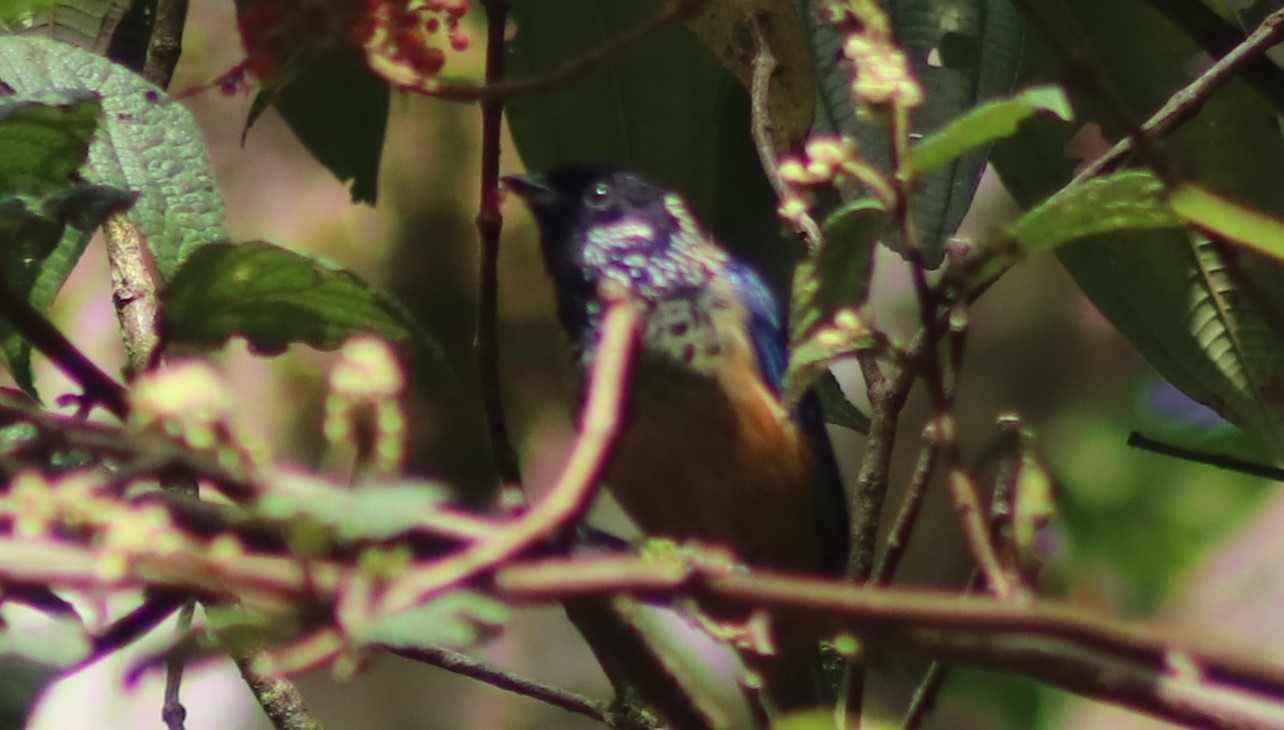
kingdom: Animalia
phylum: Chordata
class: Aves
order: Passeriformes
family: Thraupidae
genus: Tangara
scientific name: Tangara dowii
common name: Spangle-cheeked tanager
